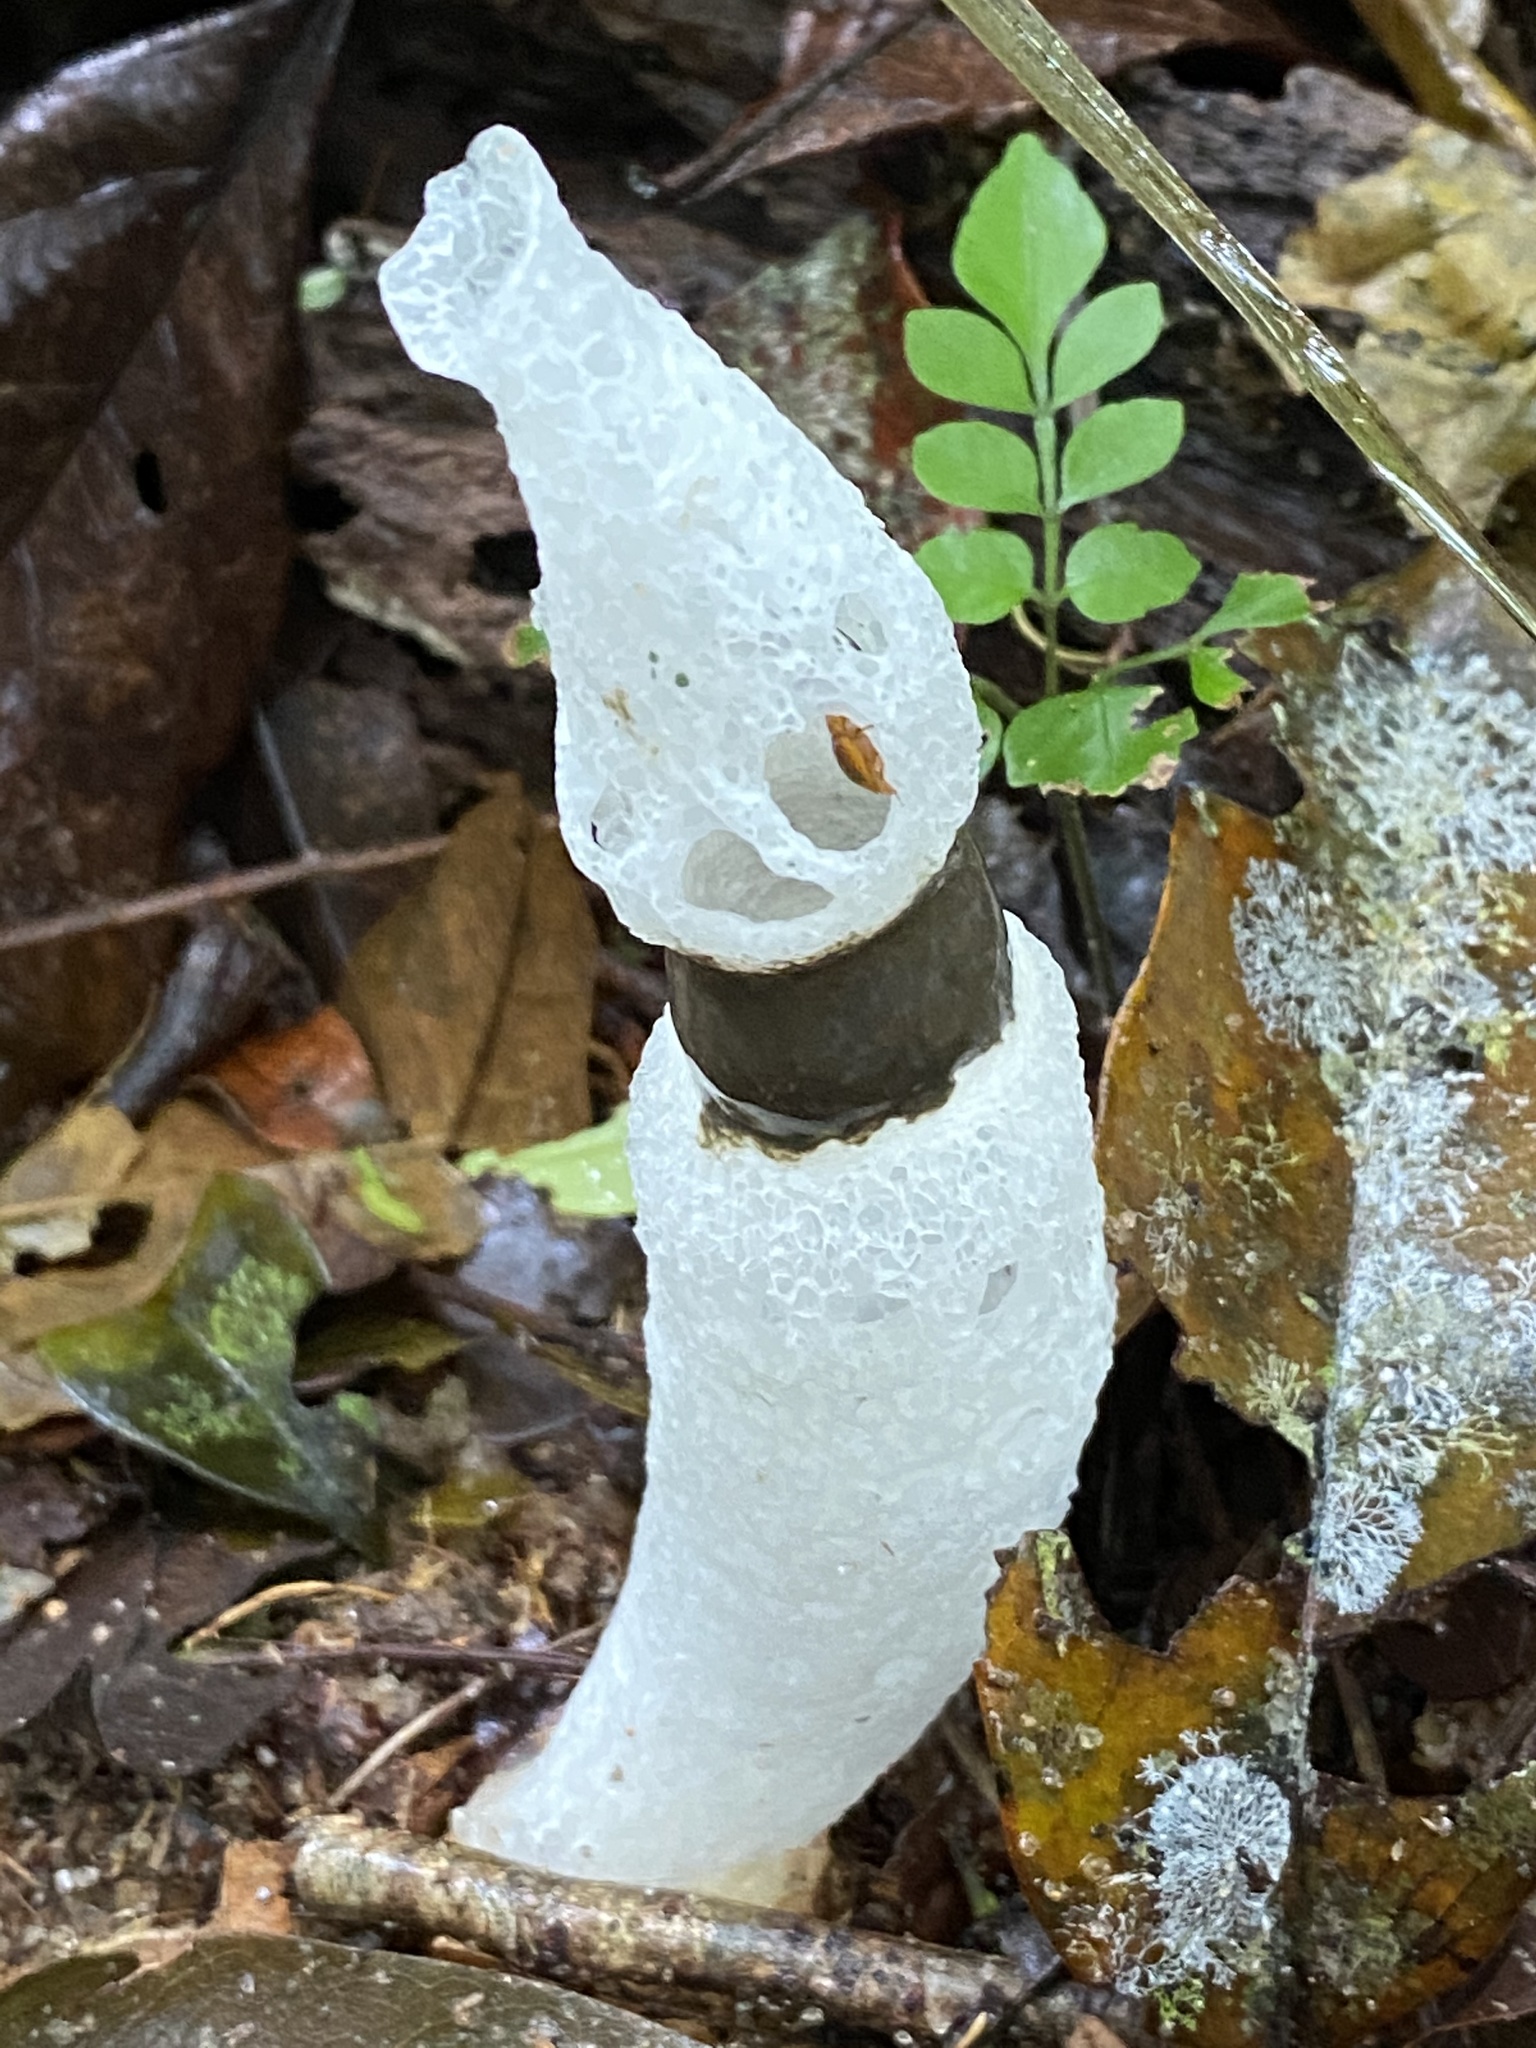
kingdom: Fungi
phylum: Basidiomycota
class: Agaricomycetes
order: Phallales
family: Phallaceae
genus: Staheliomyces
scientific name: Staheliomyces cinctus
